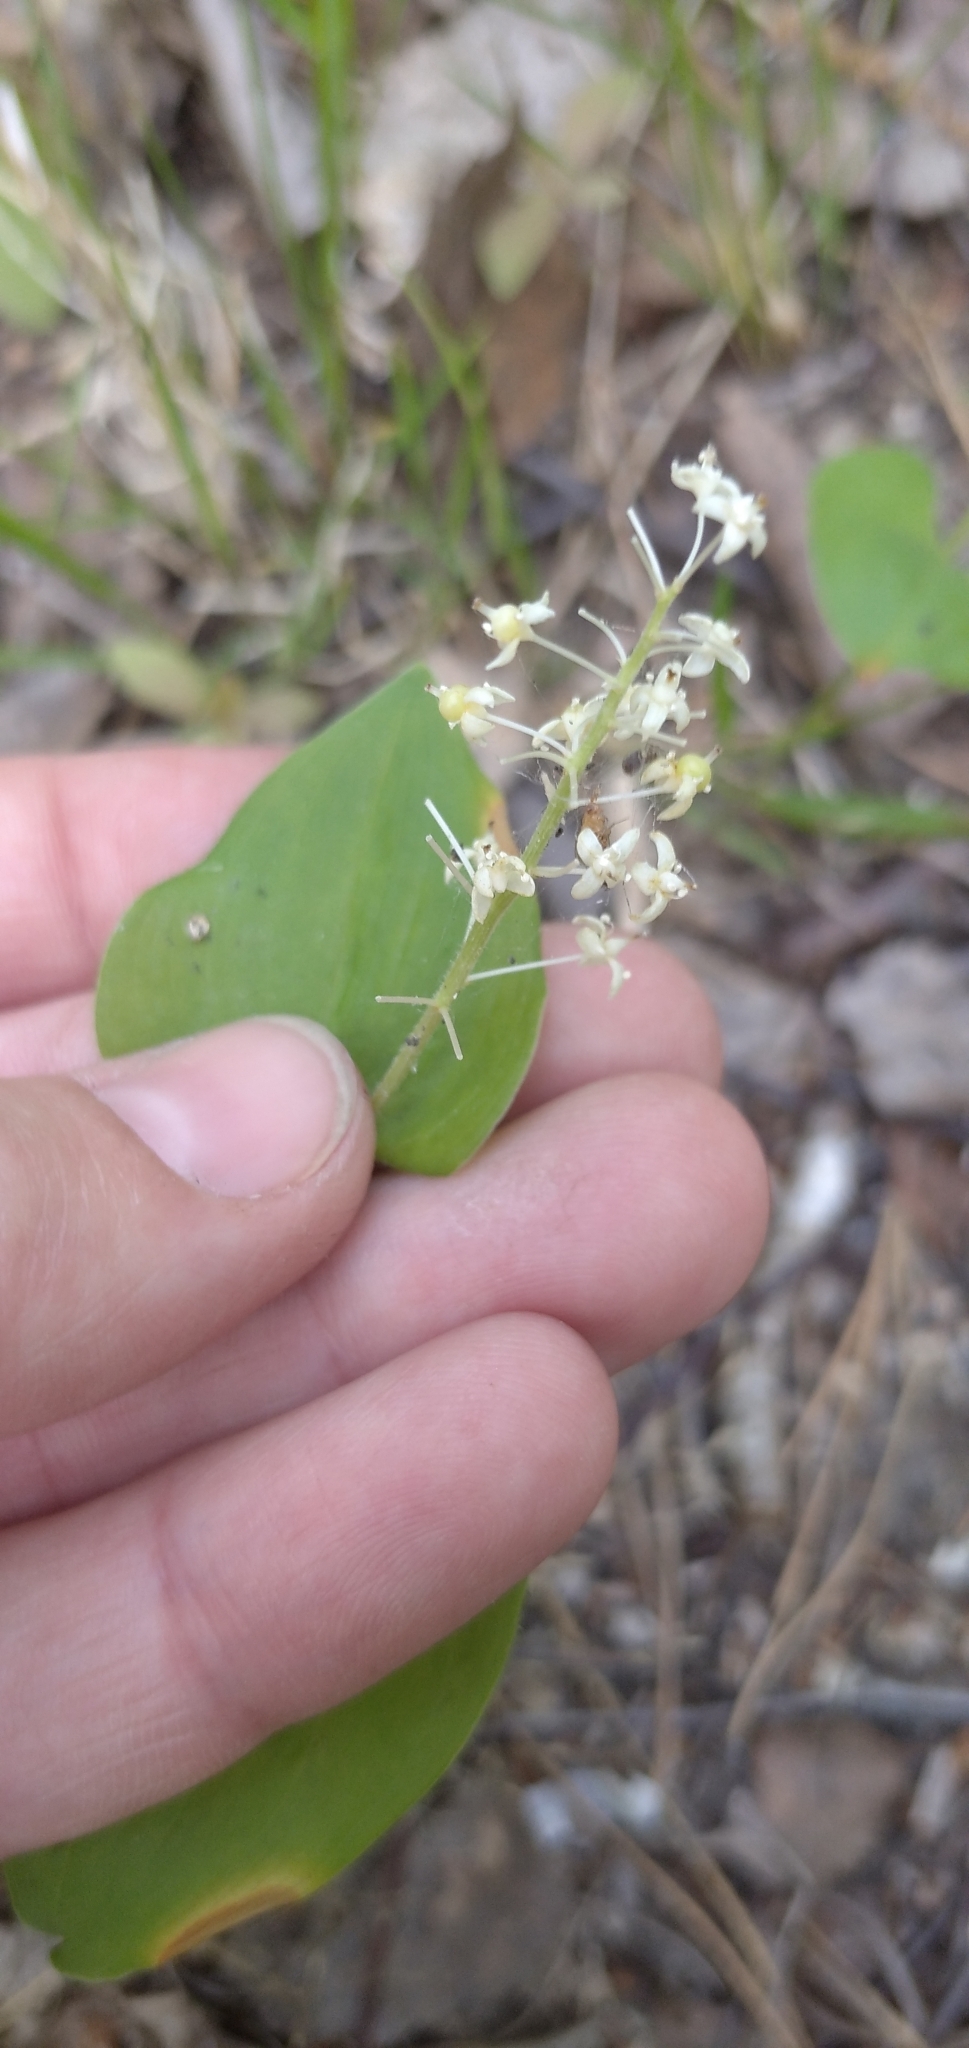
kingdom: Plantae
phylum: Tracheophyta
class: Liliopsida
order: Asparagales
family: Asparagaceae
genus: Maianthemum
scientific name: Maianthemum bifolium
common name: May lily
